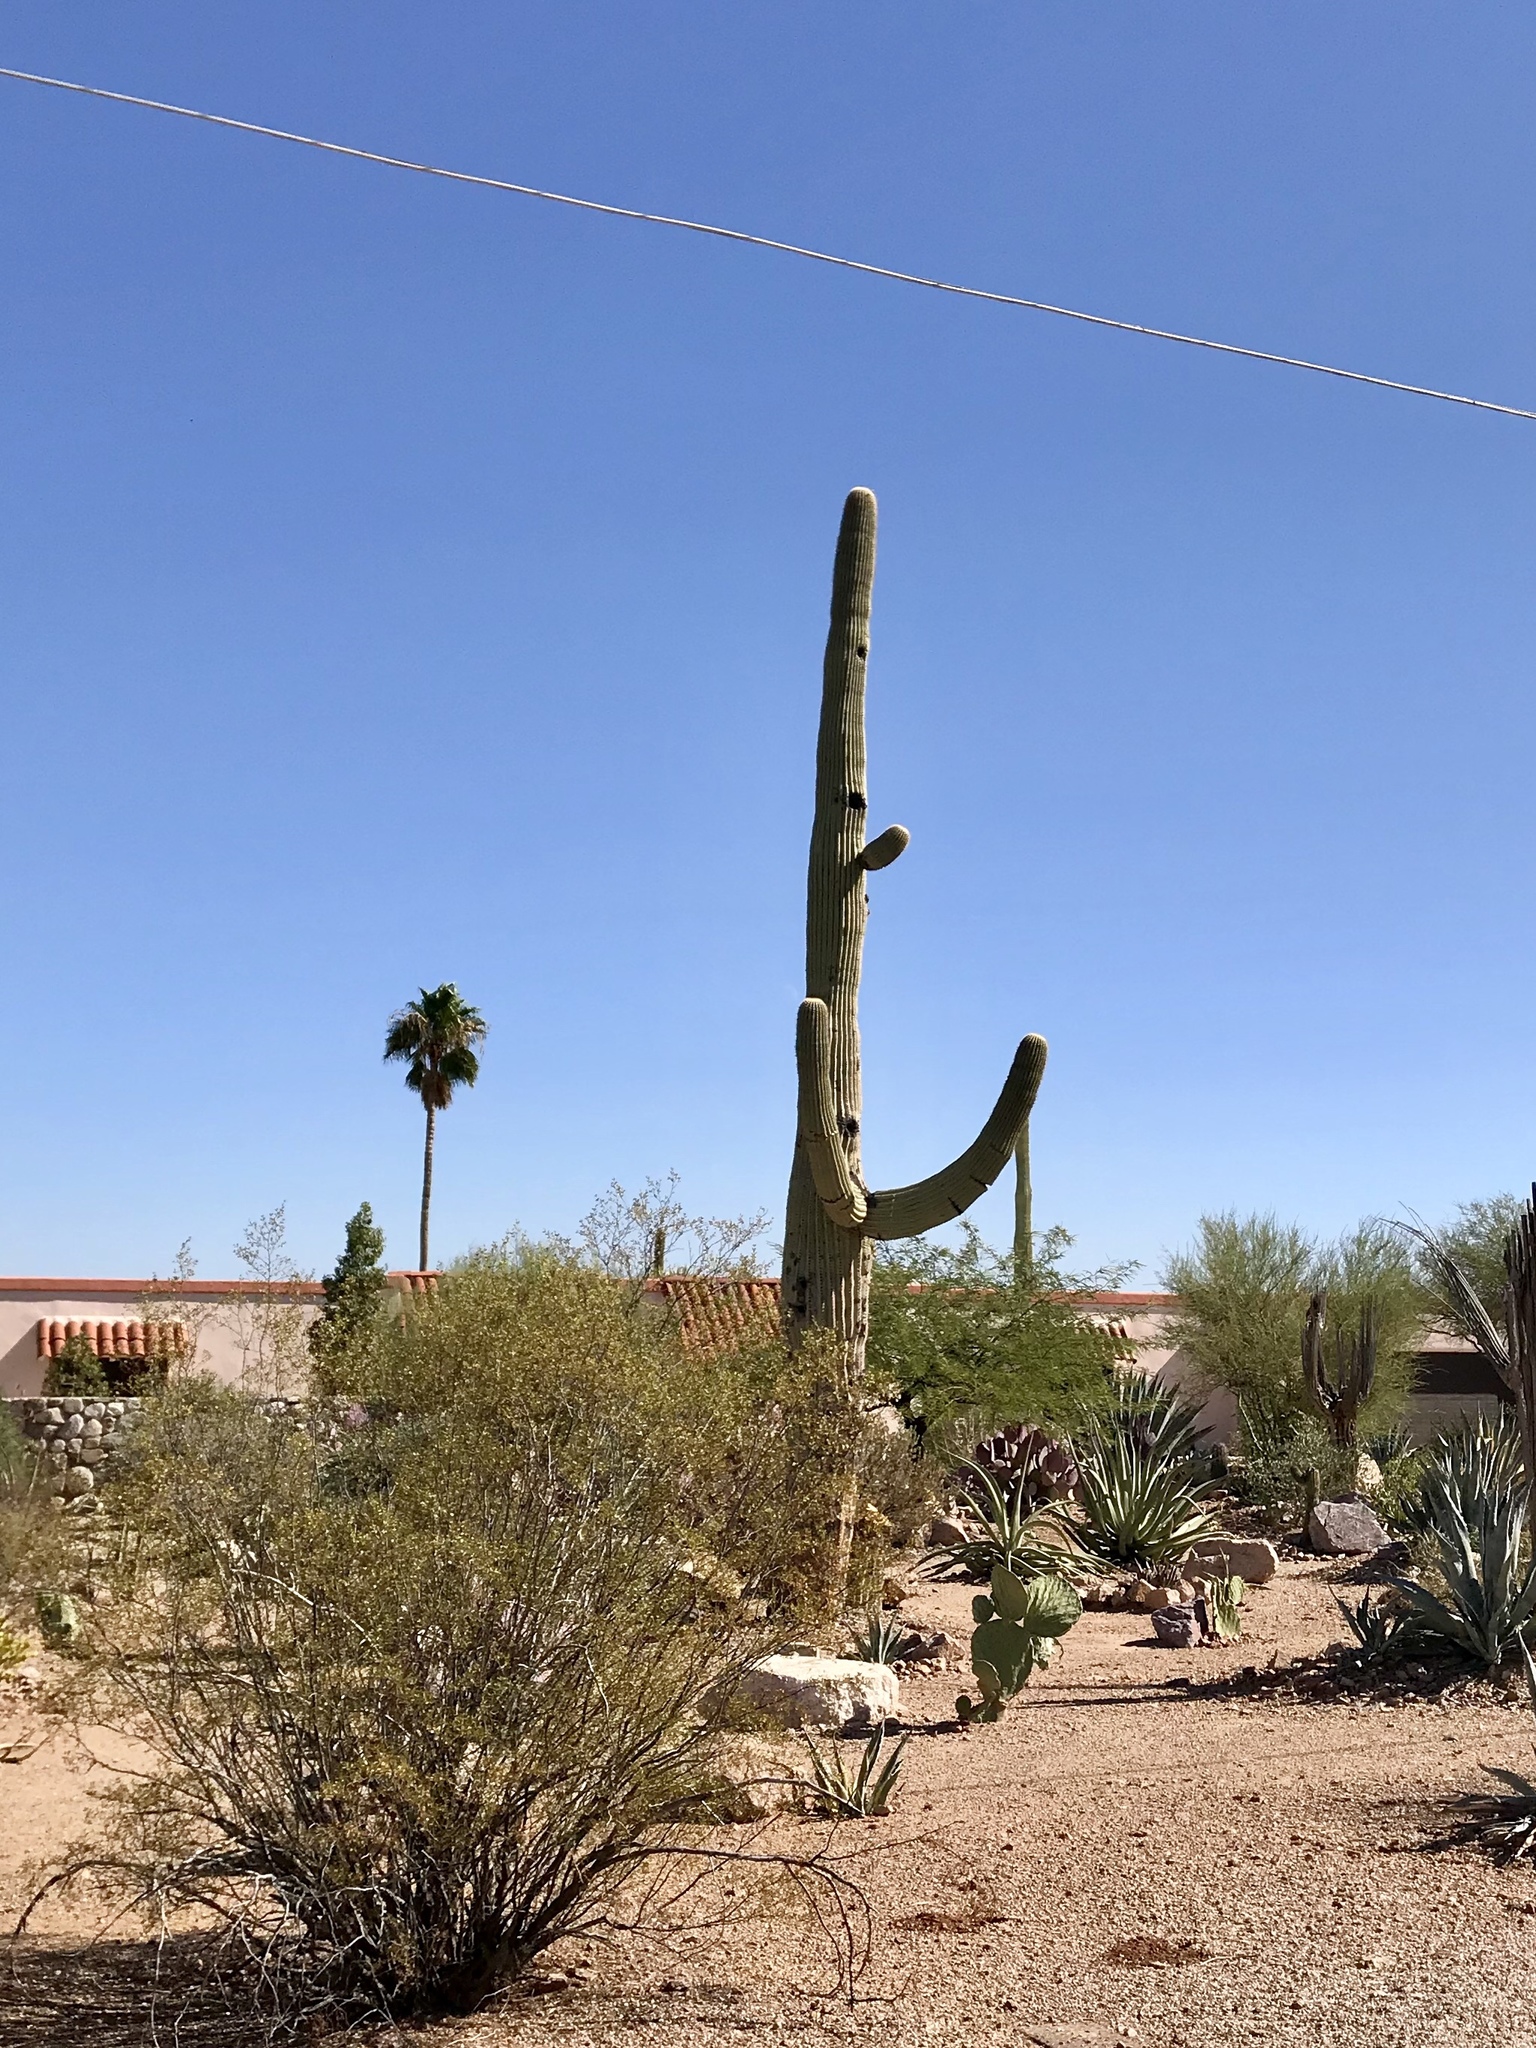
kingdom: Plantae
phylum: Tracheophyta
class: Magnoliopsida
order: Caryophyllales
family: Cactaceae
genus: Carnegiea
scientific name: Carnegiea gigantea
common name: Saguaro
